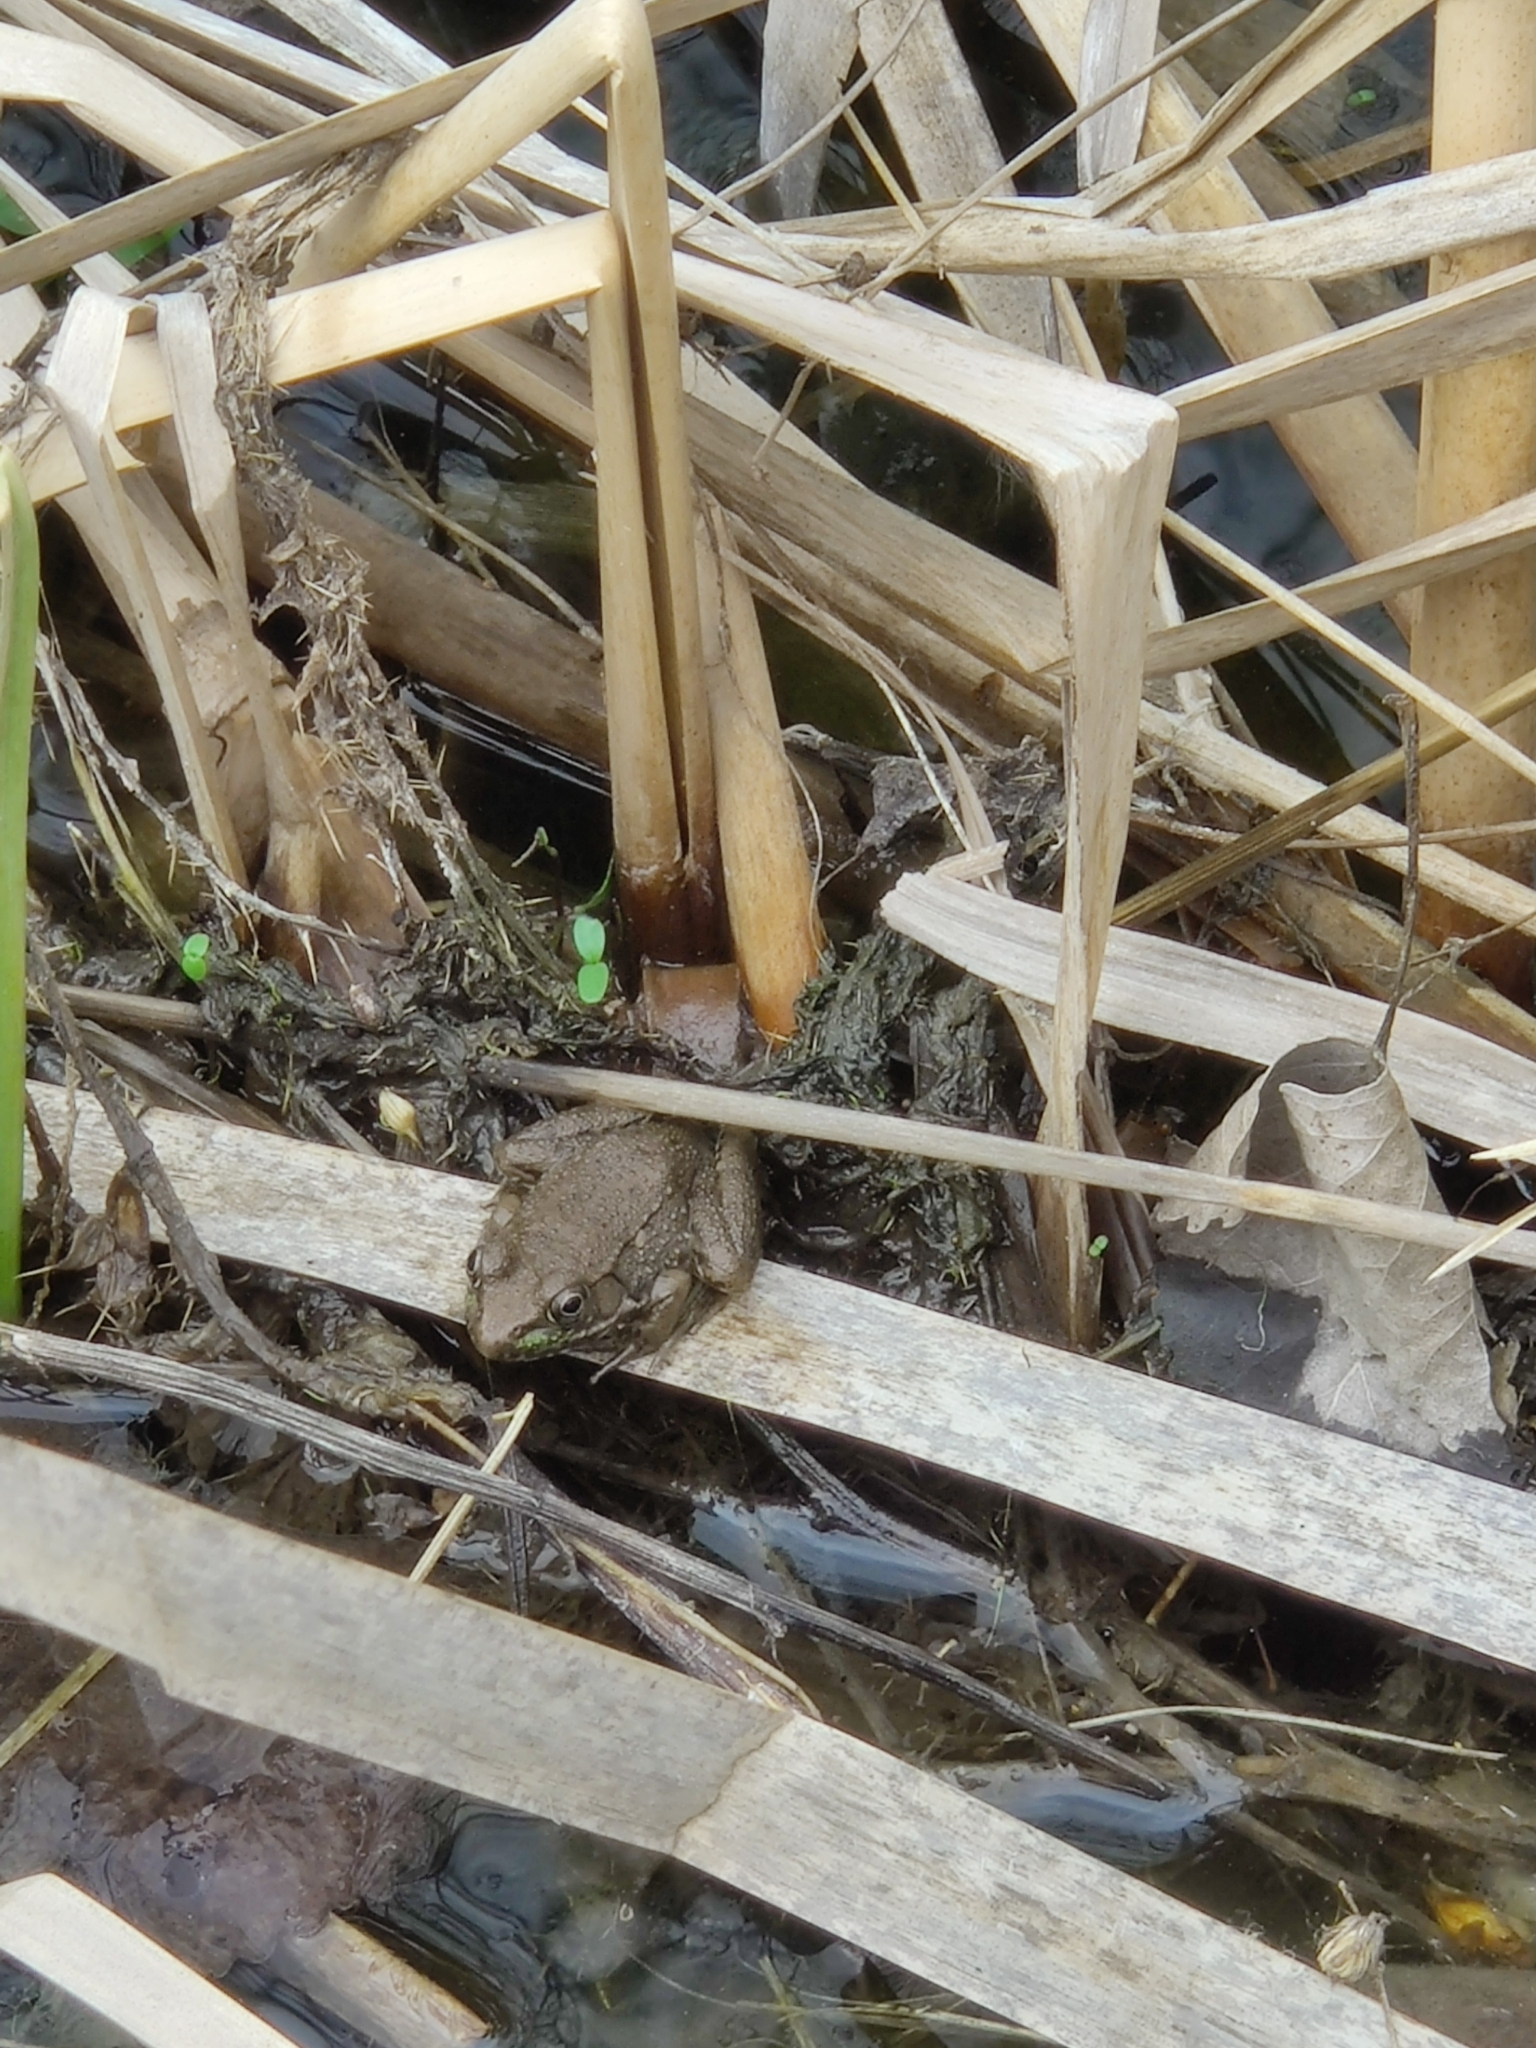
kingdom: Animalia
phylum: Chordata
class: Amphibia
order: Anura
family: Ranidae
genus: Lithobates
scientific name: Lithobates clamitans
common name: Green frog
